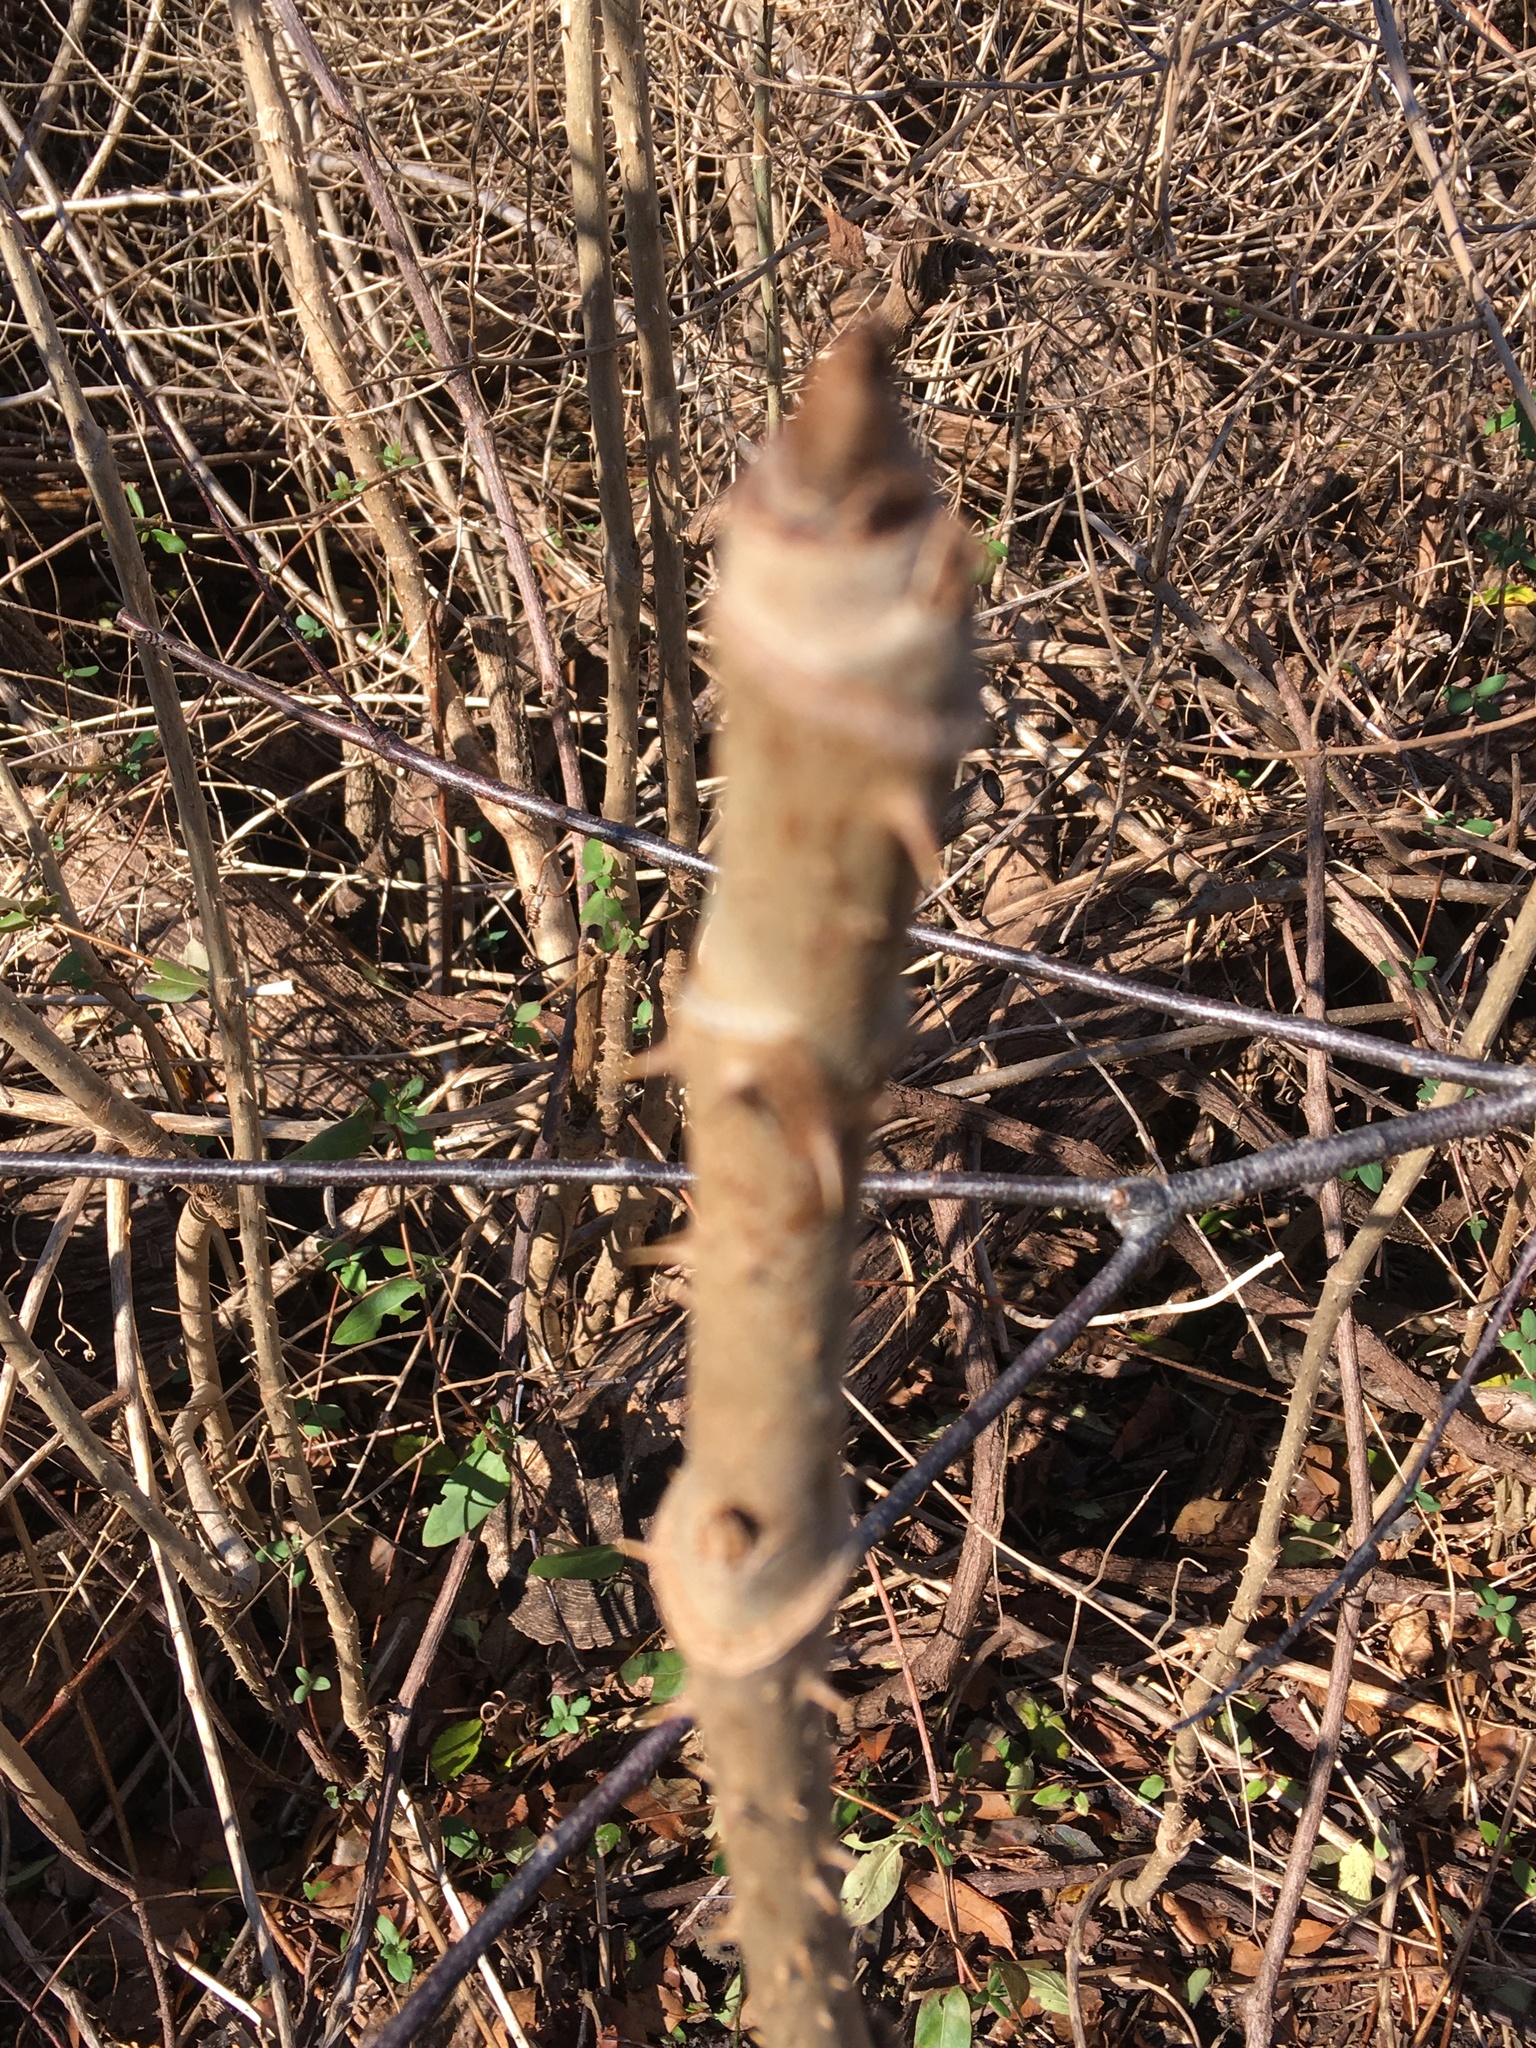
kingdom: Plantae
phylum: Tracheophyta
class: Magnoliopsida
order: Apiales
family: Araliaceae
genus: Aralia
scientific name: Aralia elata
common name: Japanese angelica-tree
